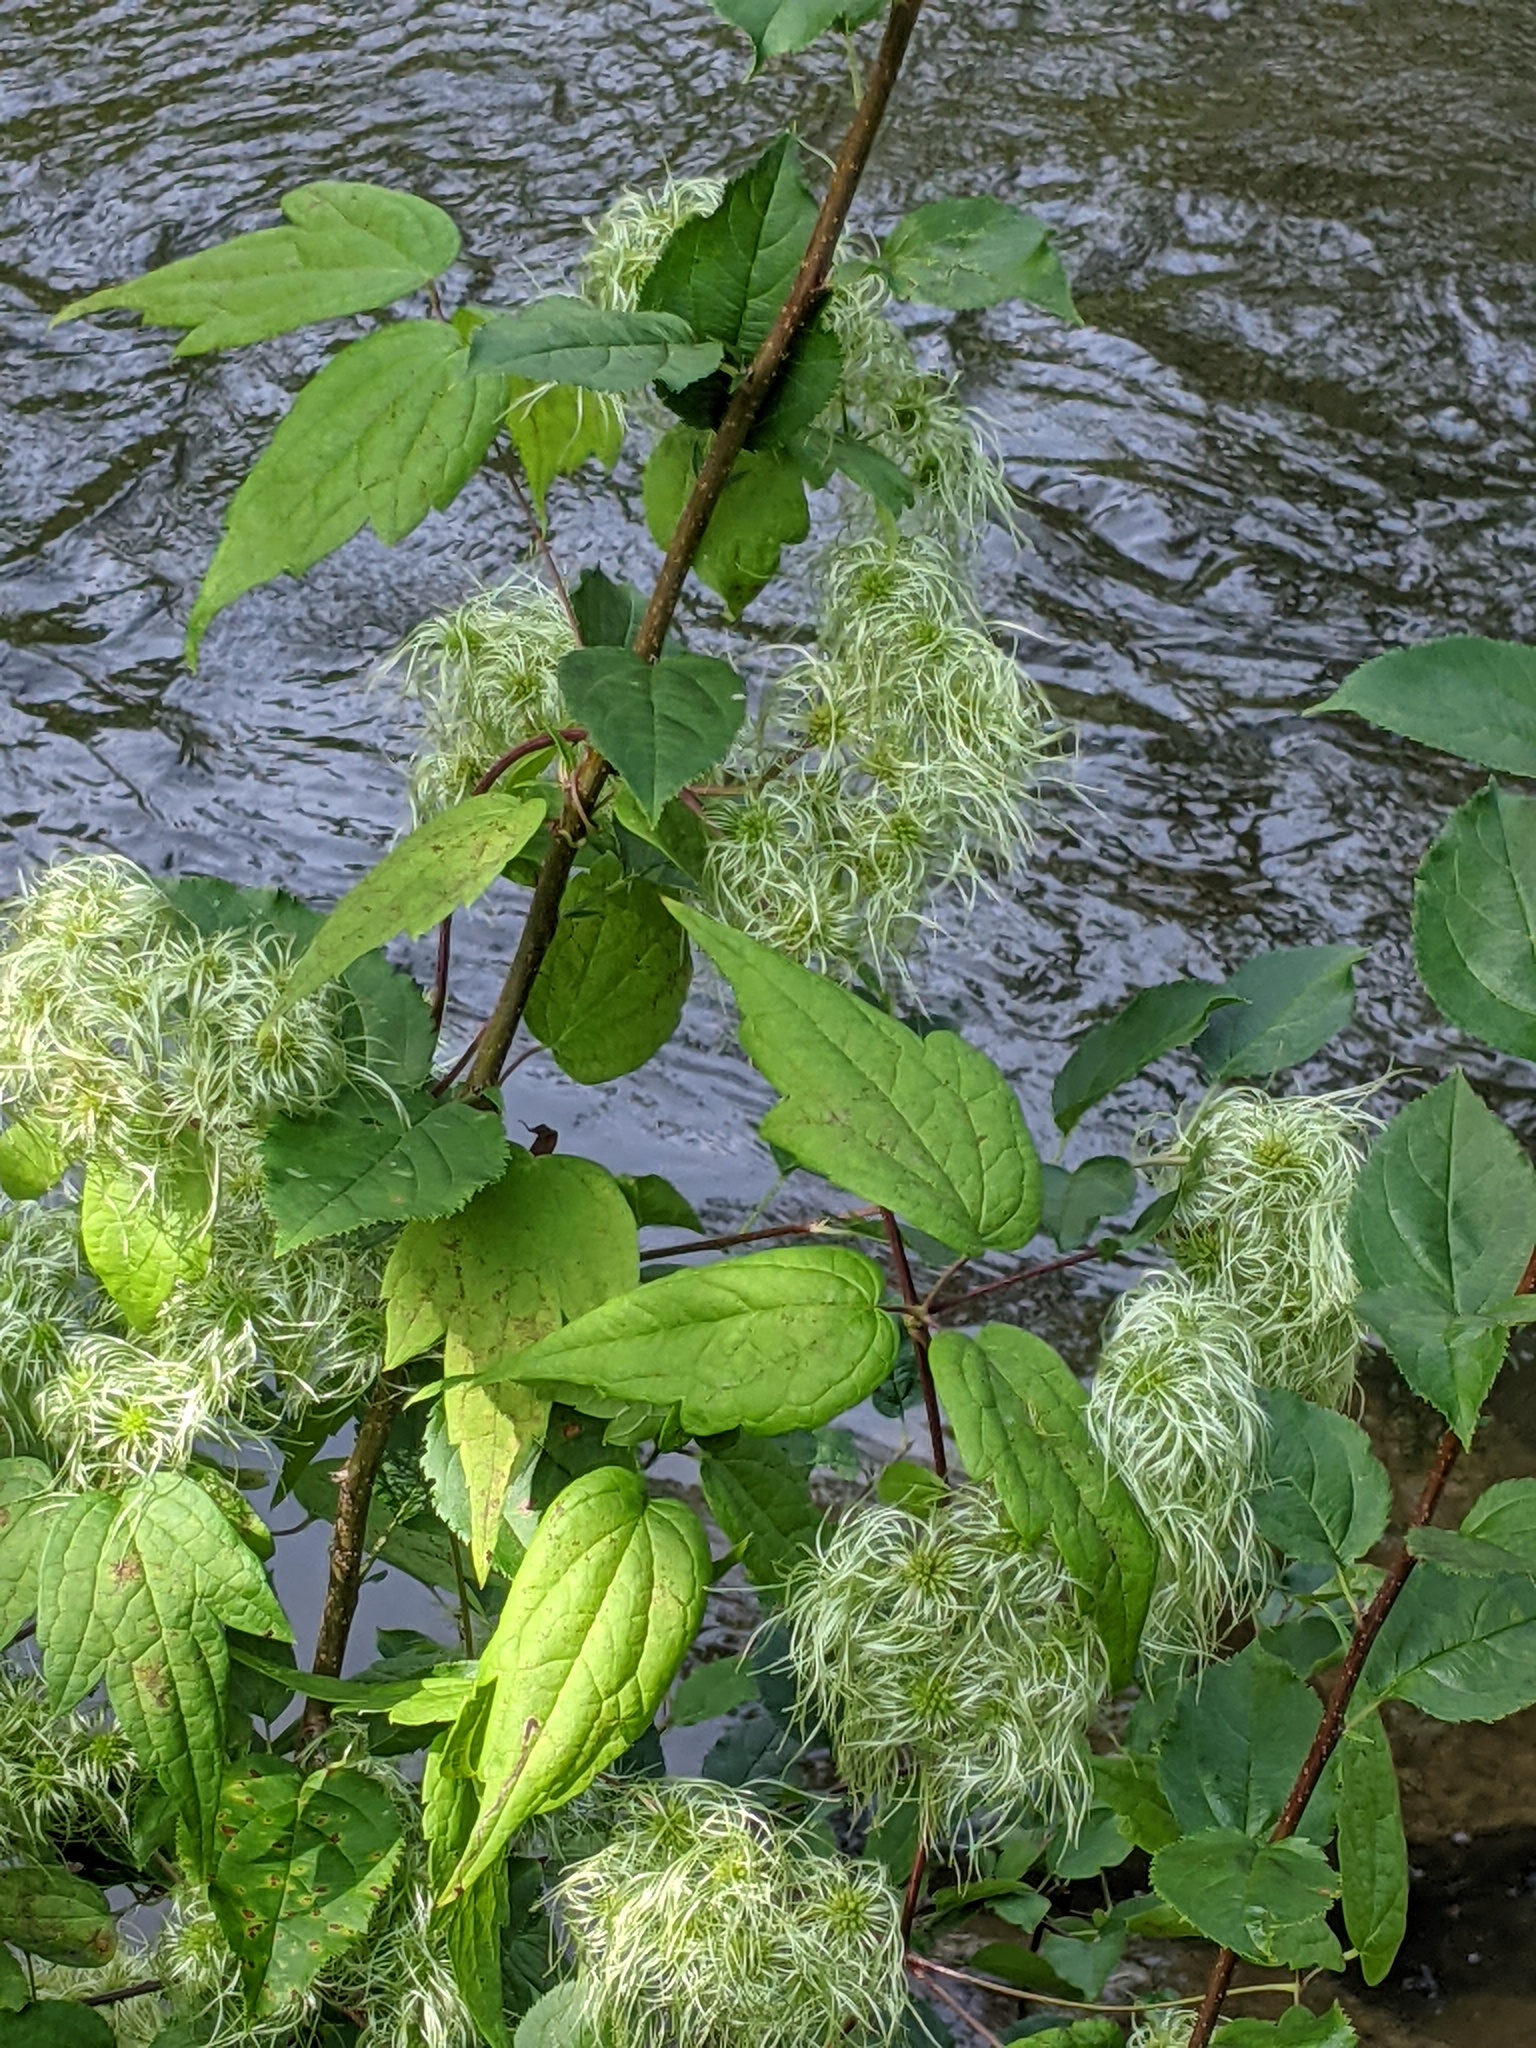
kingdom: Plantae
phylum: Tracheophyta
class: Magnoliopsida
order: Ranunculales
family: Ranunculaceae
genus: Clematis
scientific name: Clematis virginiana
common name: Virgin's-bower
